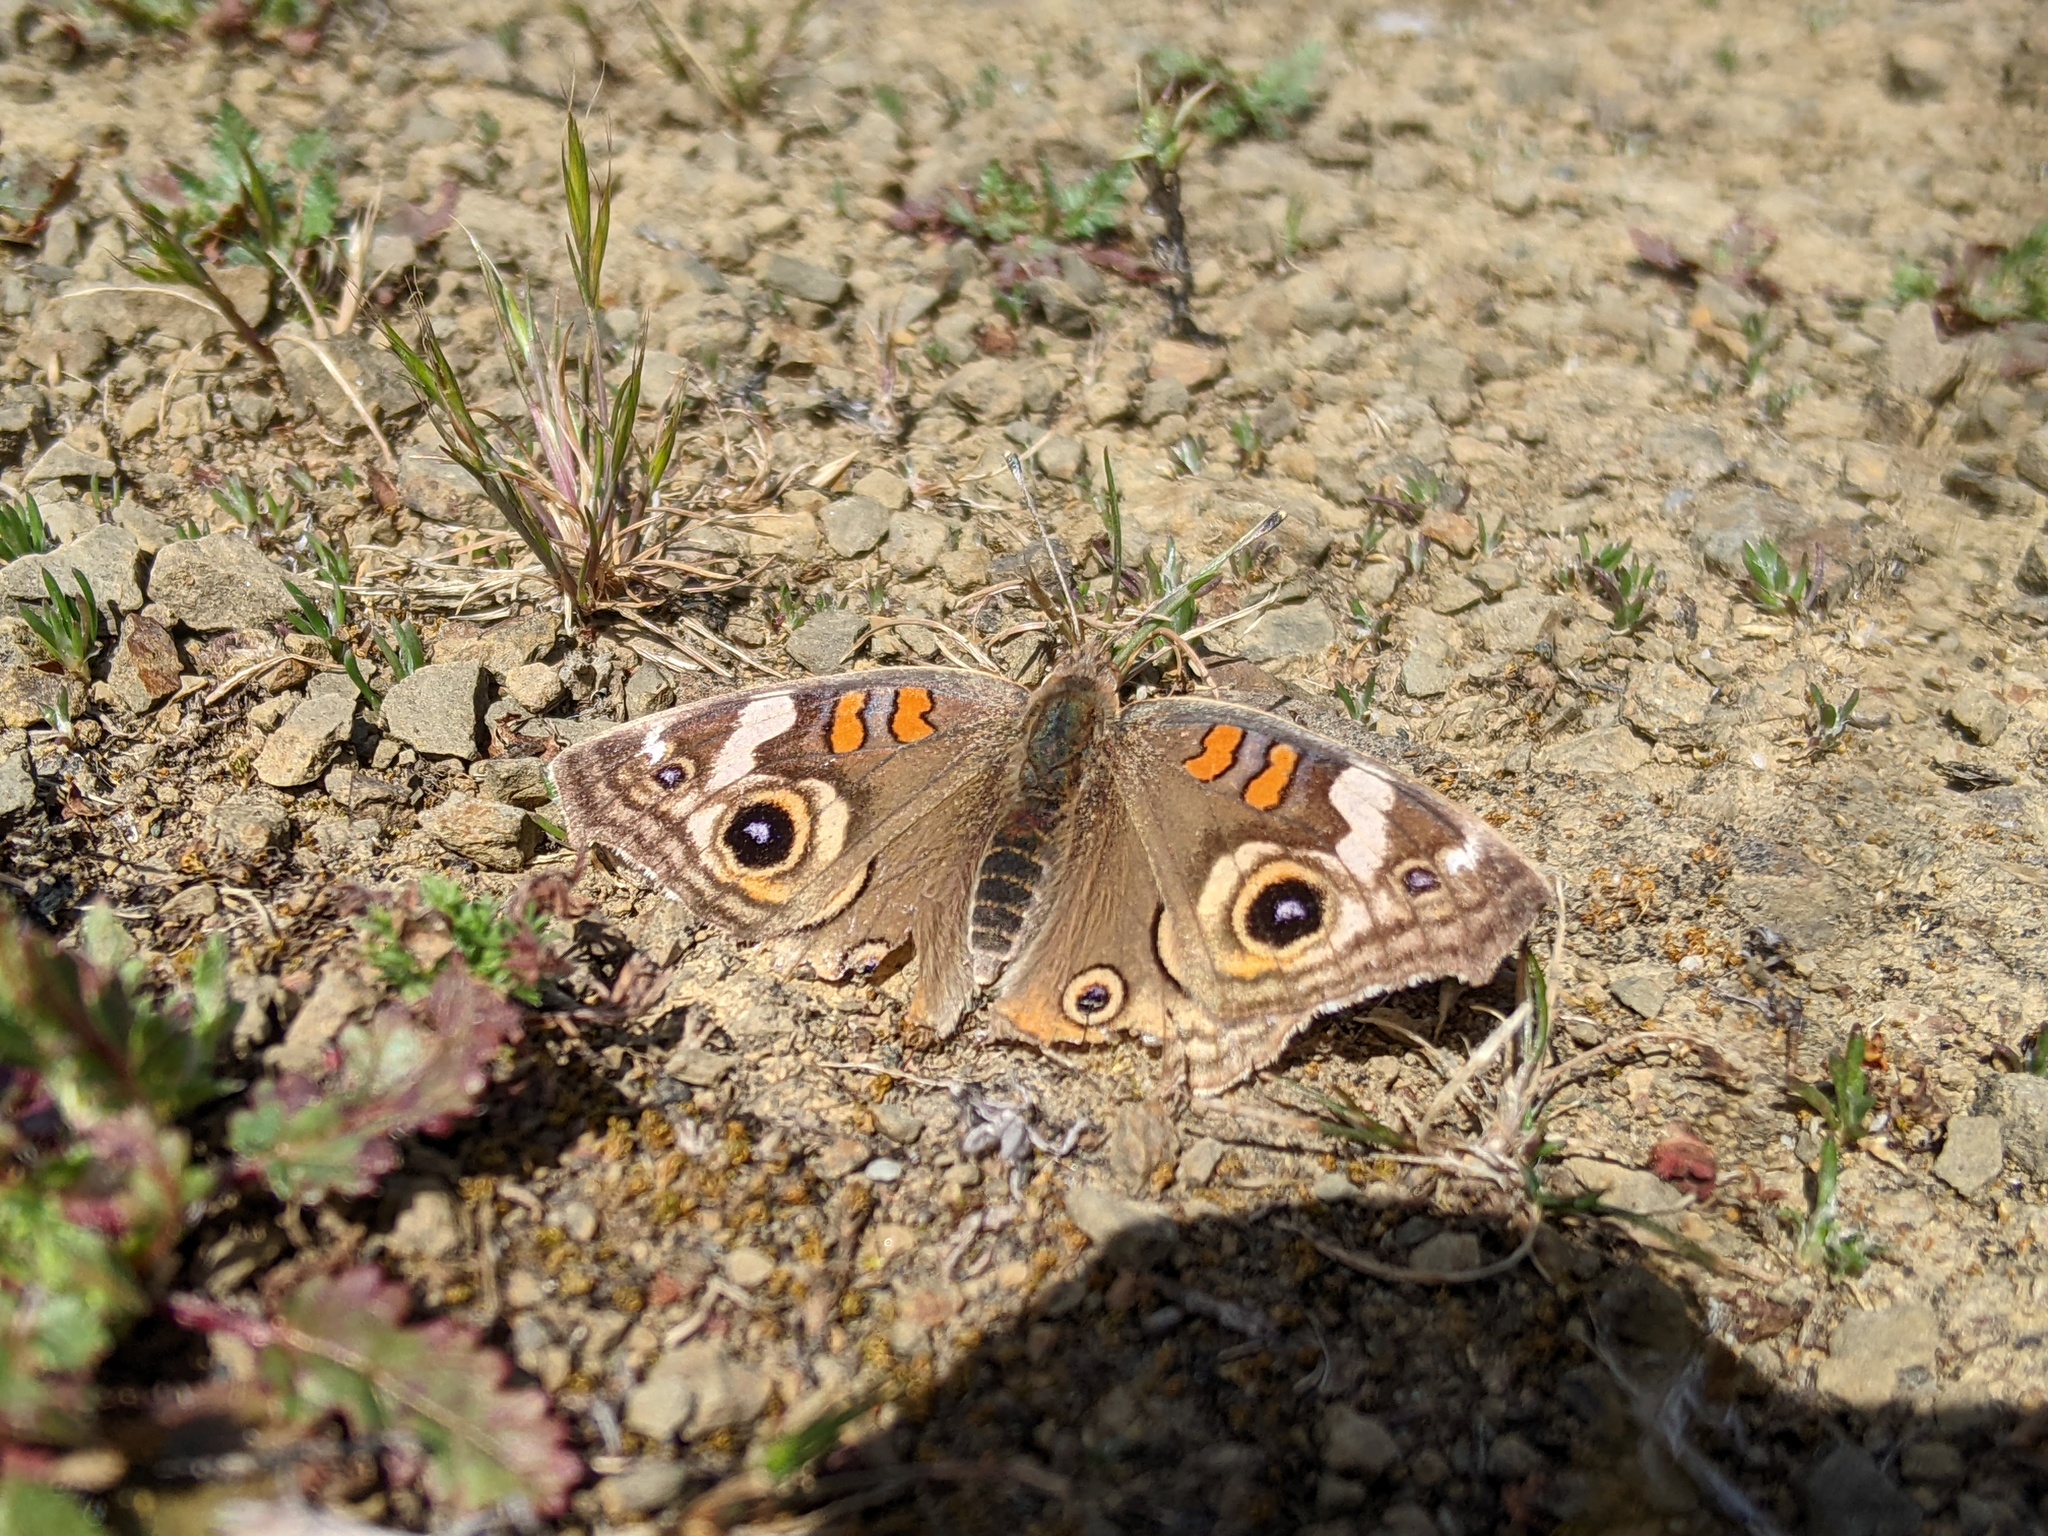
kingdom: Animalia
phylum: Arthropoda
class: Insecta
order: Lepidoptera
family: Nymphalidae
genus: Junonia
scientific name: Junonia grisea
